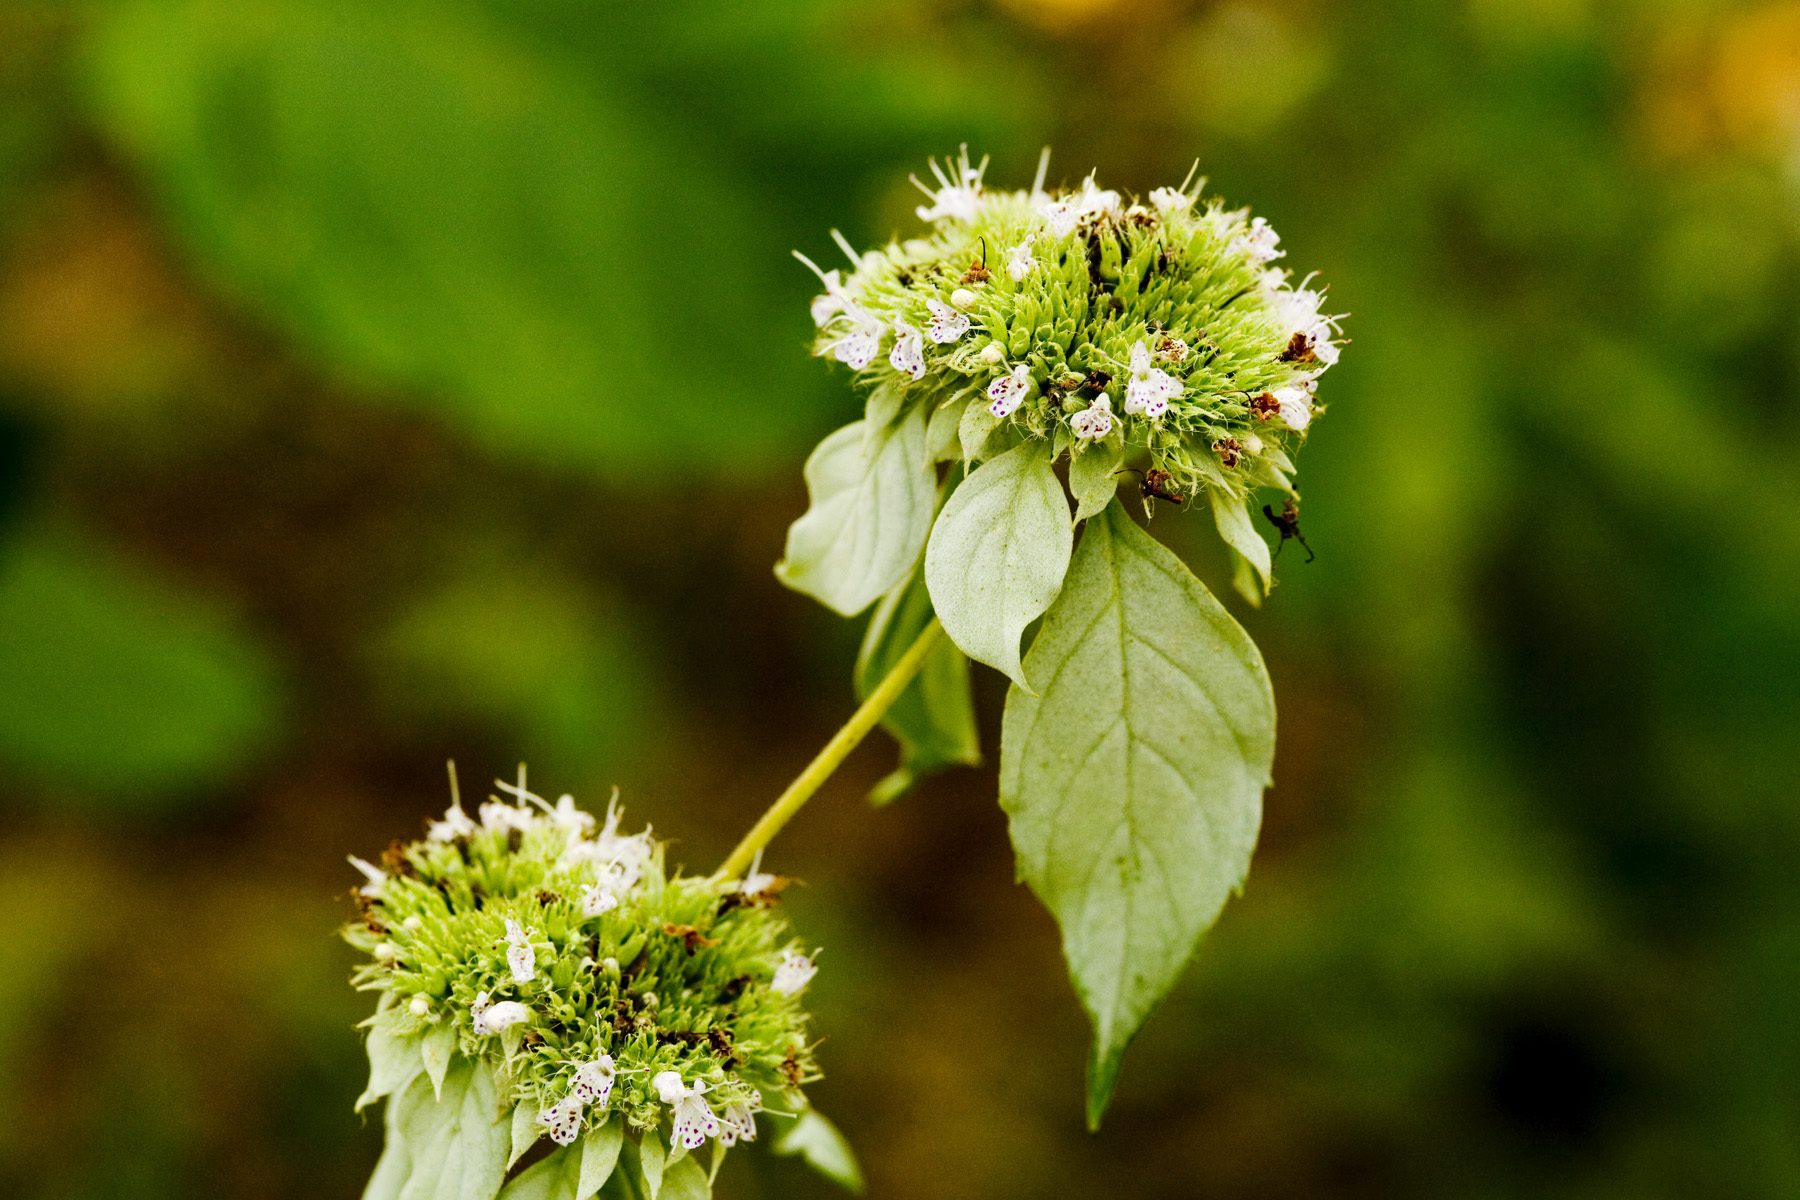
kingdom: Plantae
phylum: Tracheophyta
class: Magnoliopsida
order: Lamiales
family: Lamiaceae
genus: Pycnanthemum
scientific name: Pycnanthemum incanum
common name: Hoary mountain-mint
